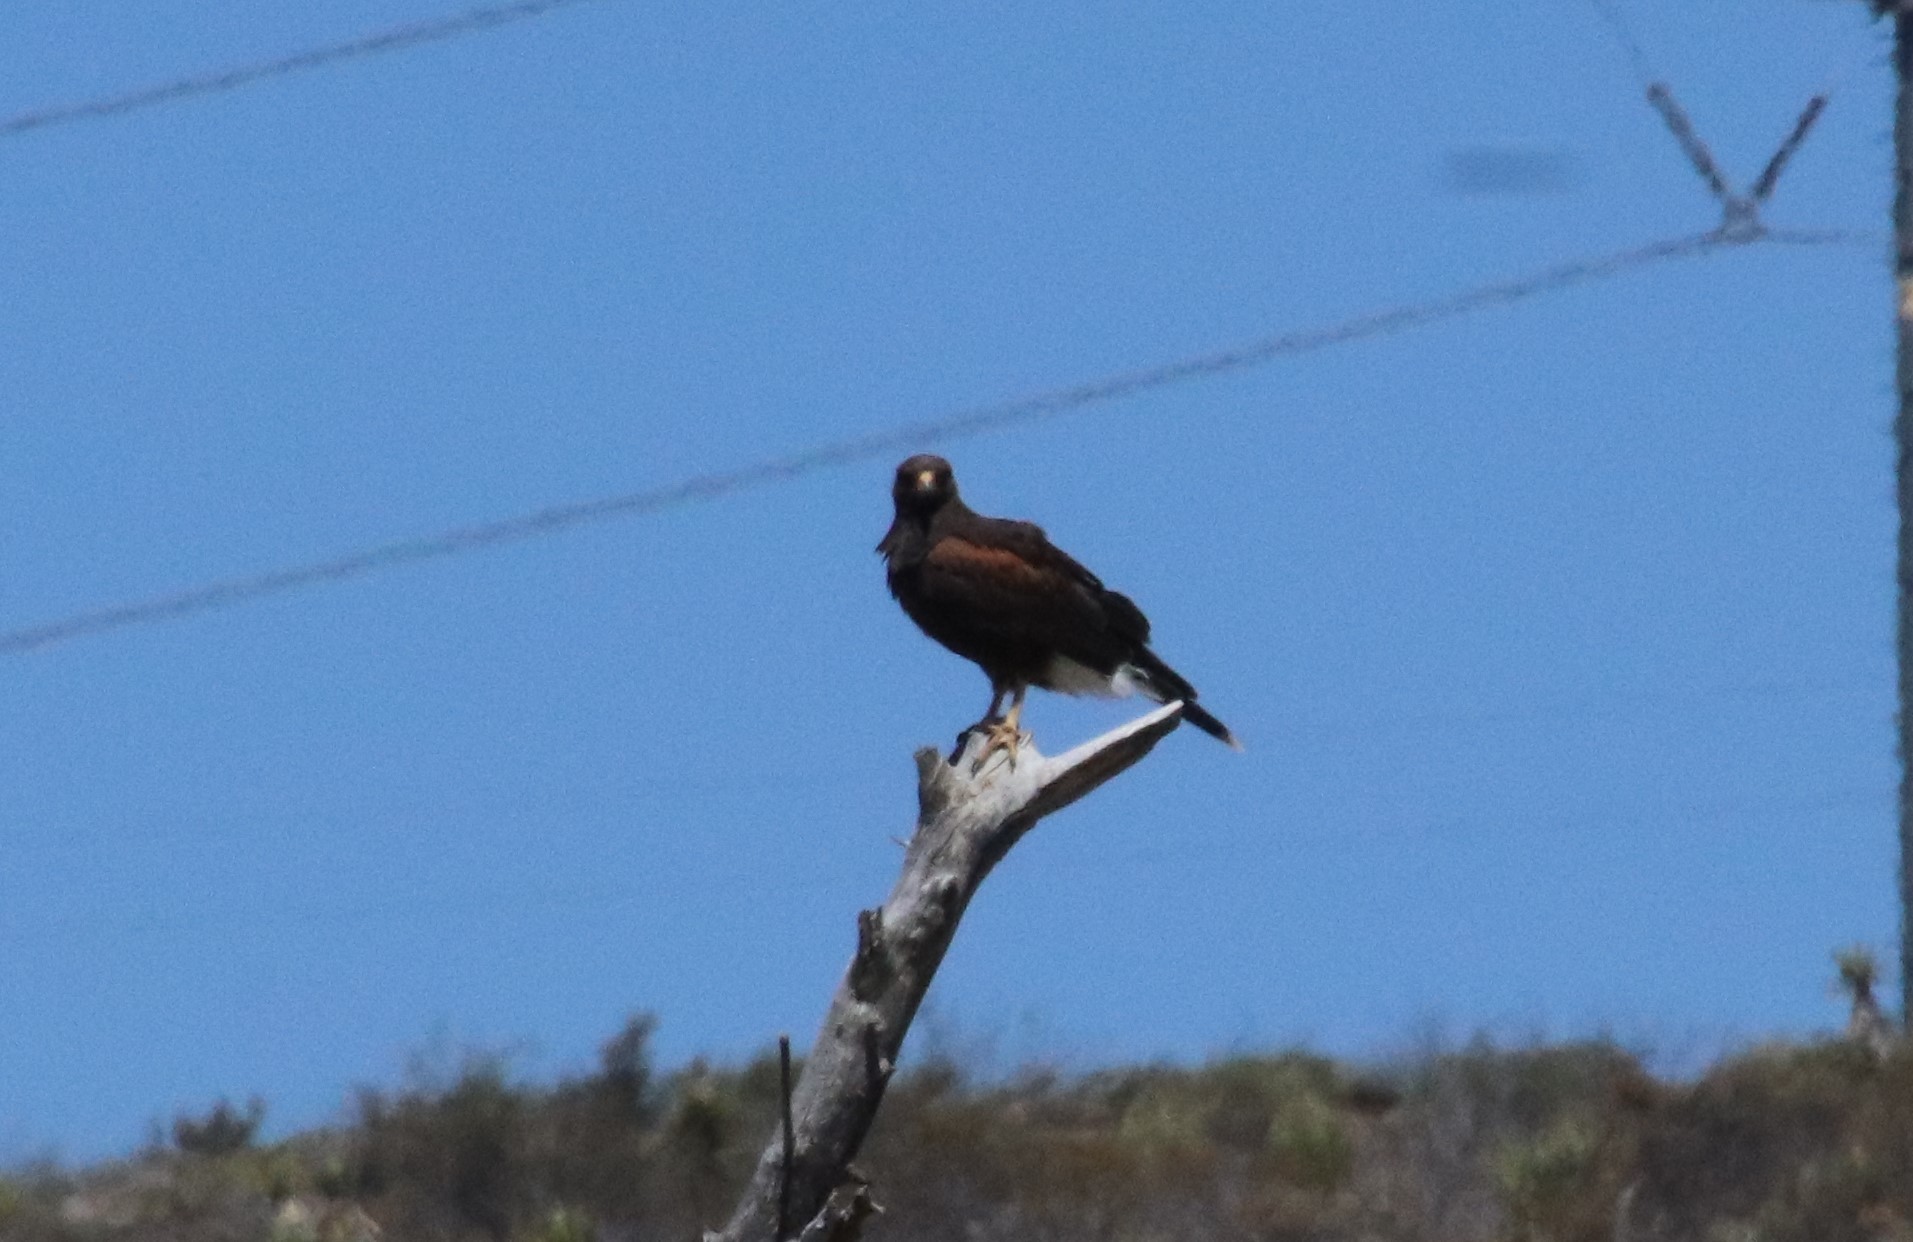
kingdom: Animalia
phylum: Chordata
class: Aves
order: Accipitriformes
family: Accipitridae
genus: Parabuteo
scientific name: Parabuteo unicinctus
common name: Harris's hawk
